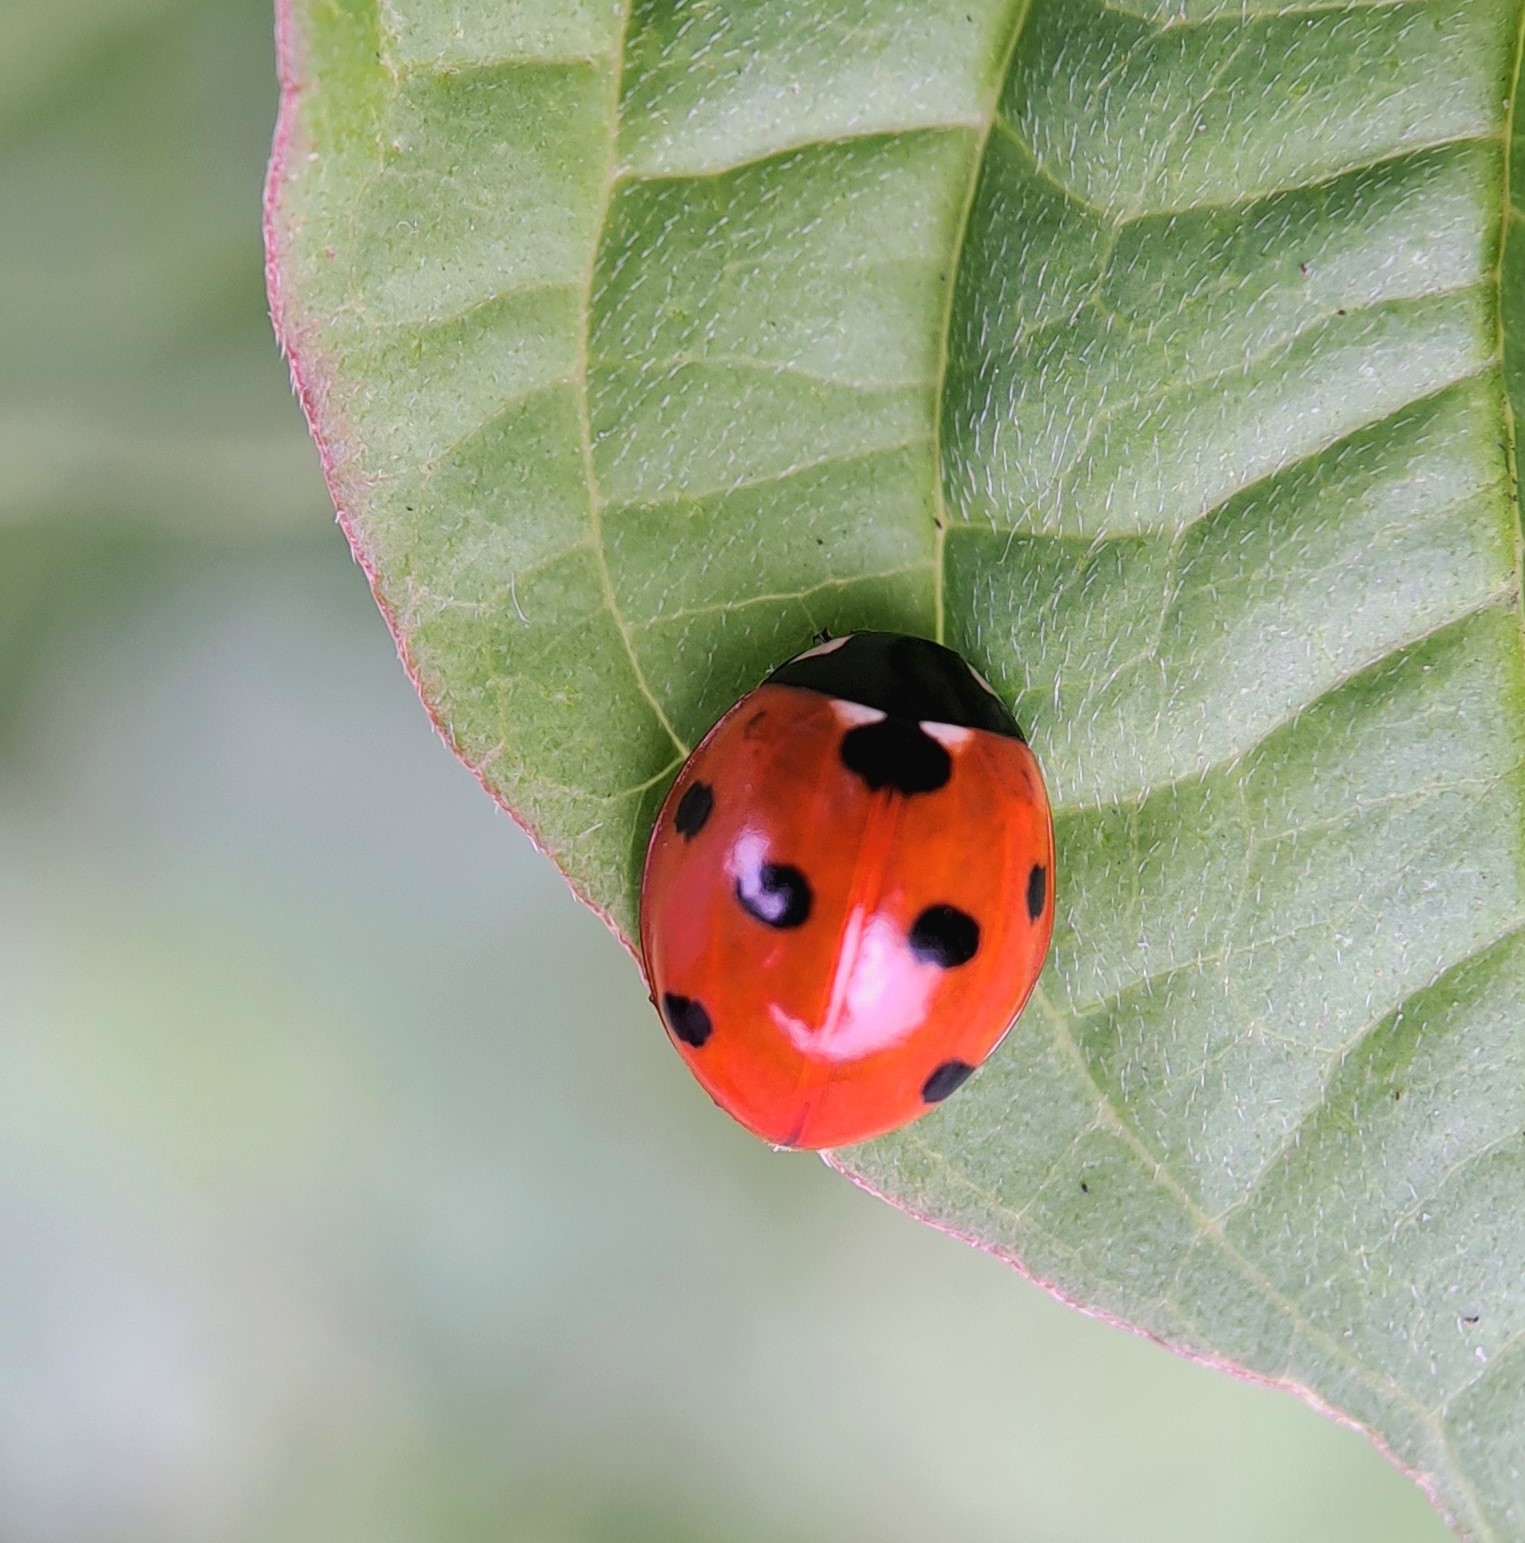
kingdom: Animalia
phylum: Arthropoda
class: Insecta
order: Coleoptera
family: Coccinellidae
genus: Coccinella
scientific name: Coccinella septempunctata
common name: Sevenspotted lady beetle
